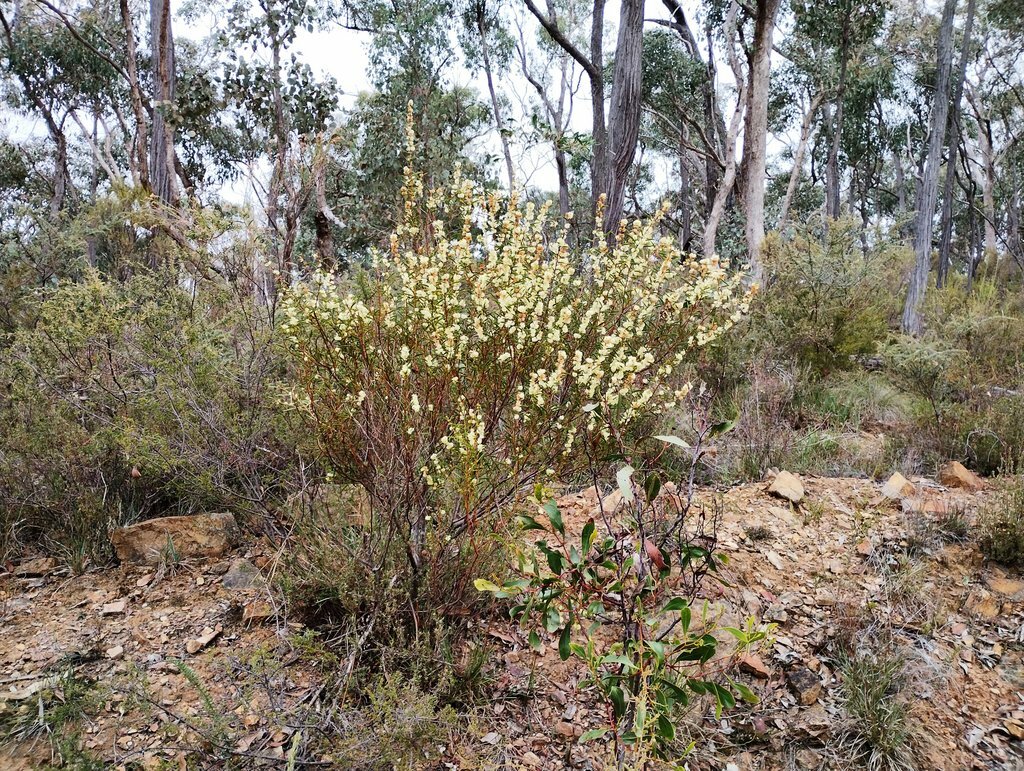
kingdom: Plantae
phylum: Tracheophyta
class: Magnoliopsida
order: Fabales
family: Fabaceae
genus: Acacia
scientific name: Acacia lanigera
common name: Hairy wattle
